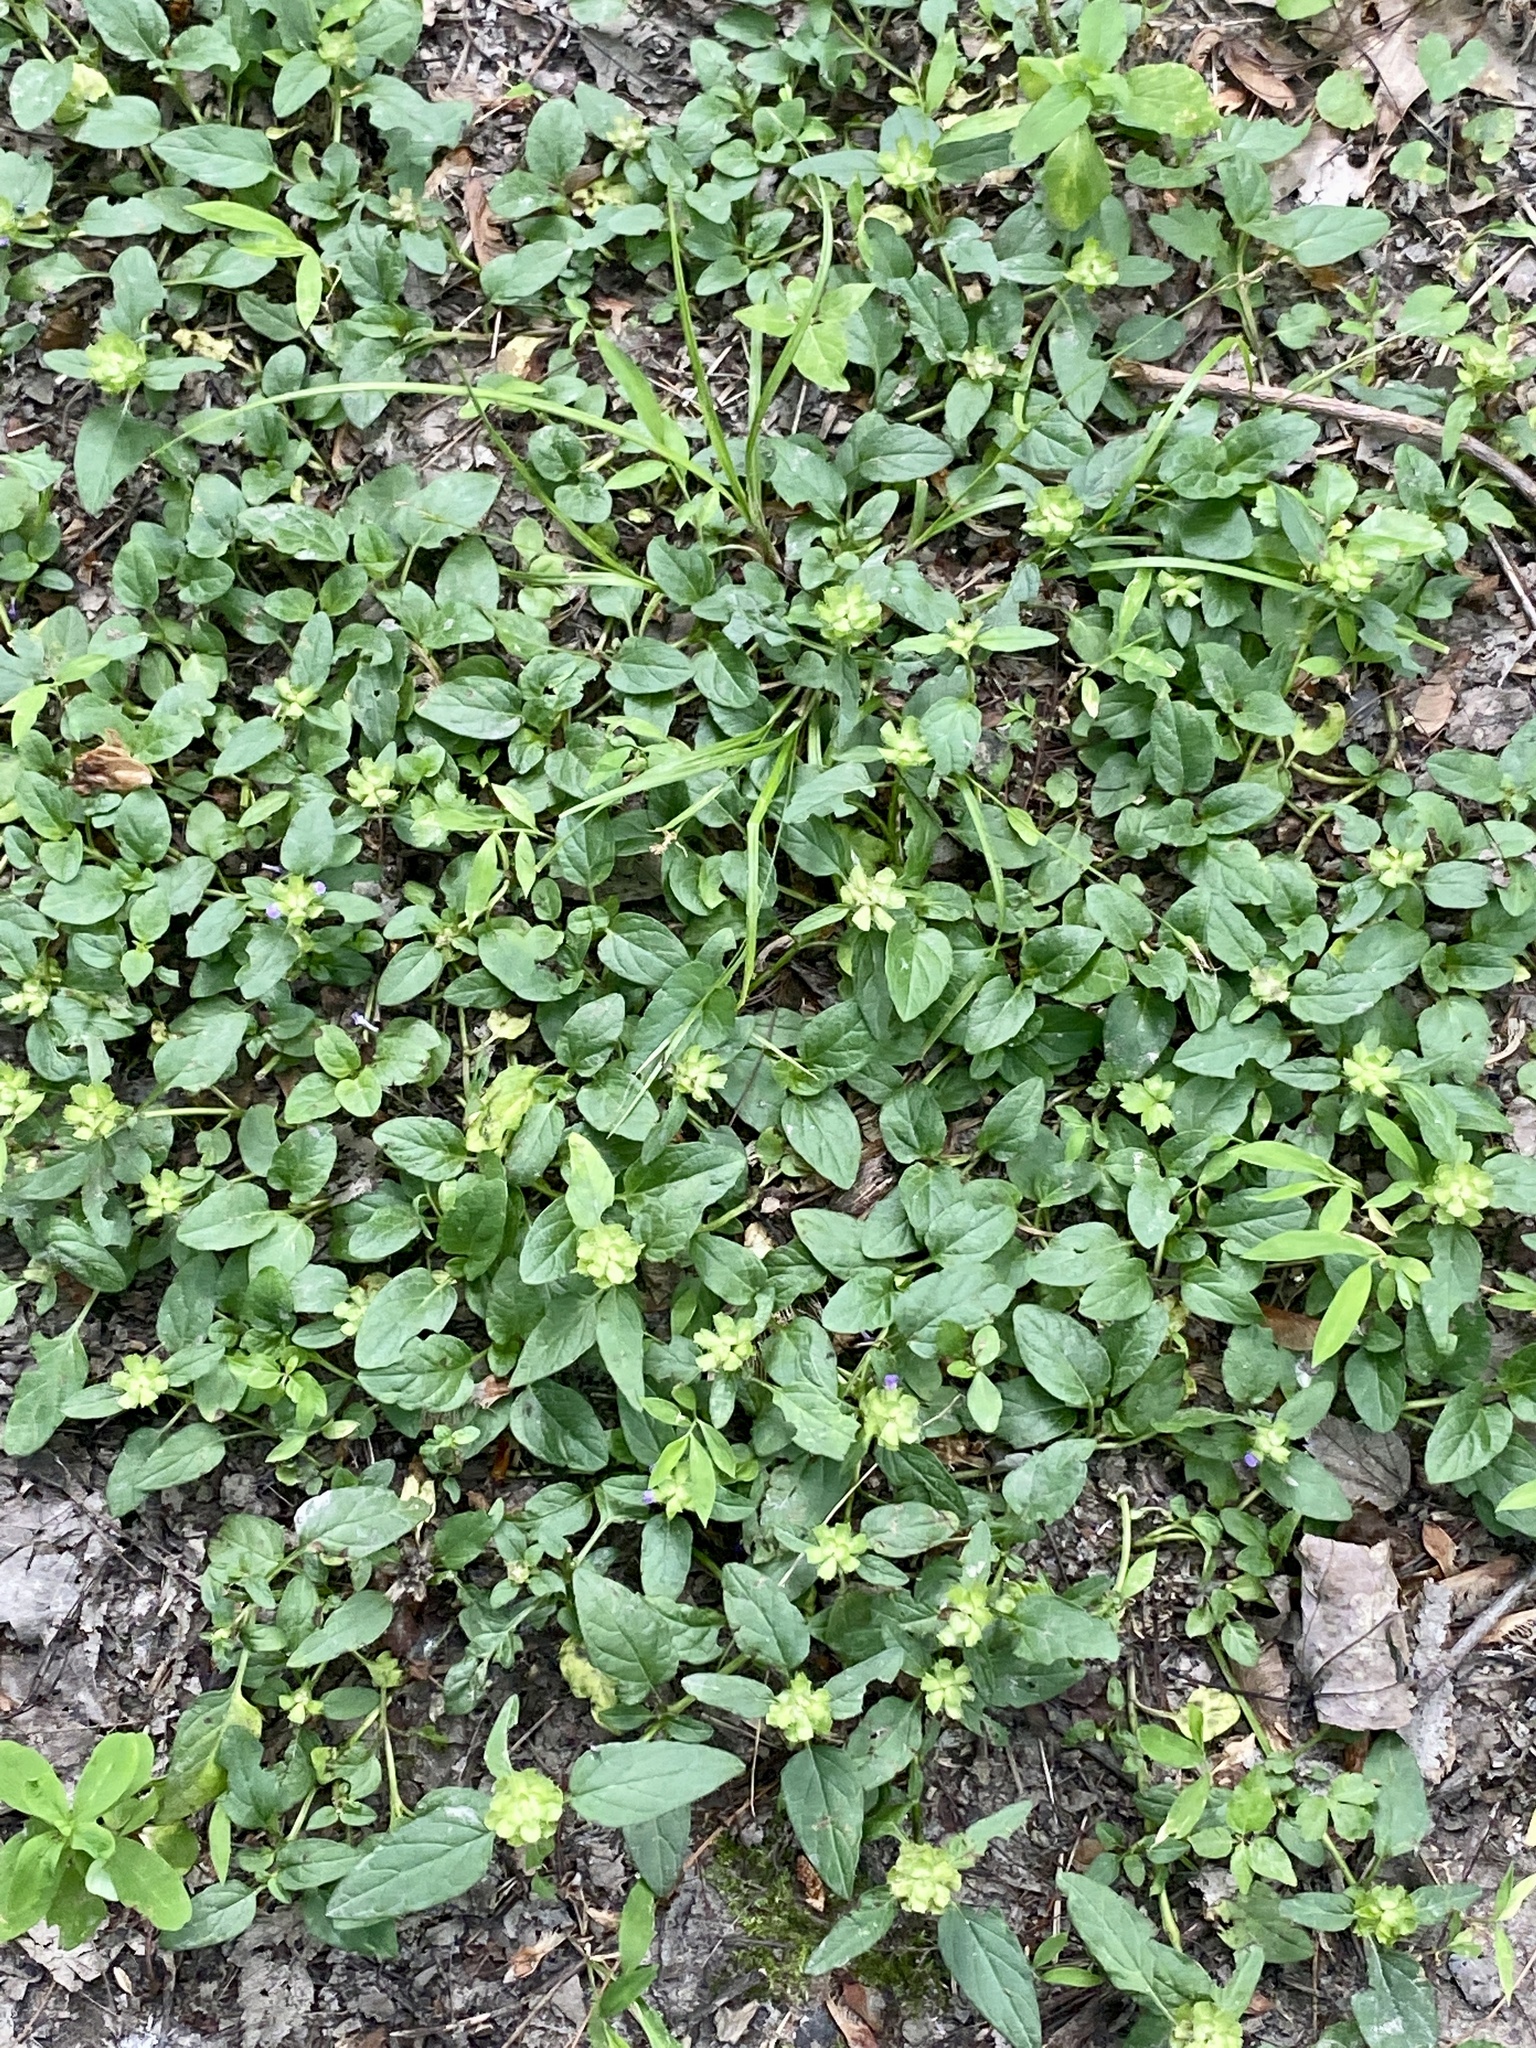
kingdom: Plantae
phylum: Tracheophyta
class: Magnoliopsida
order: Lamiales
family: Lamiaceae
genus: Prunella
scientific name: Prunella vulgaris
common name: Heal-all
